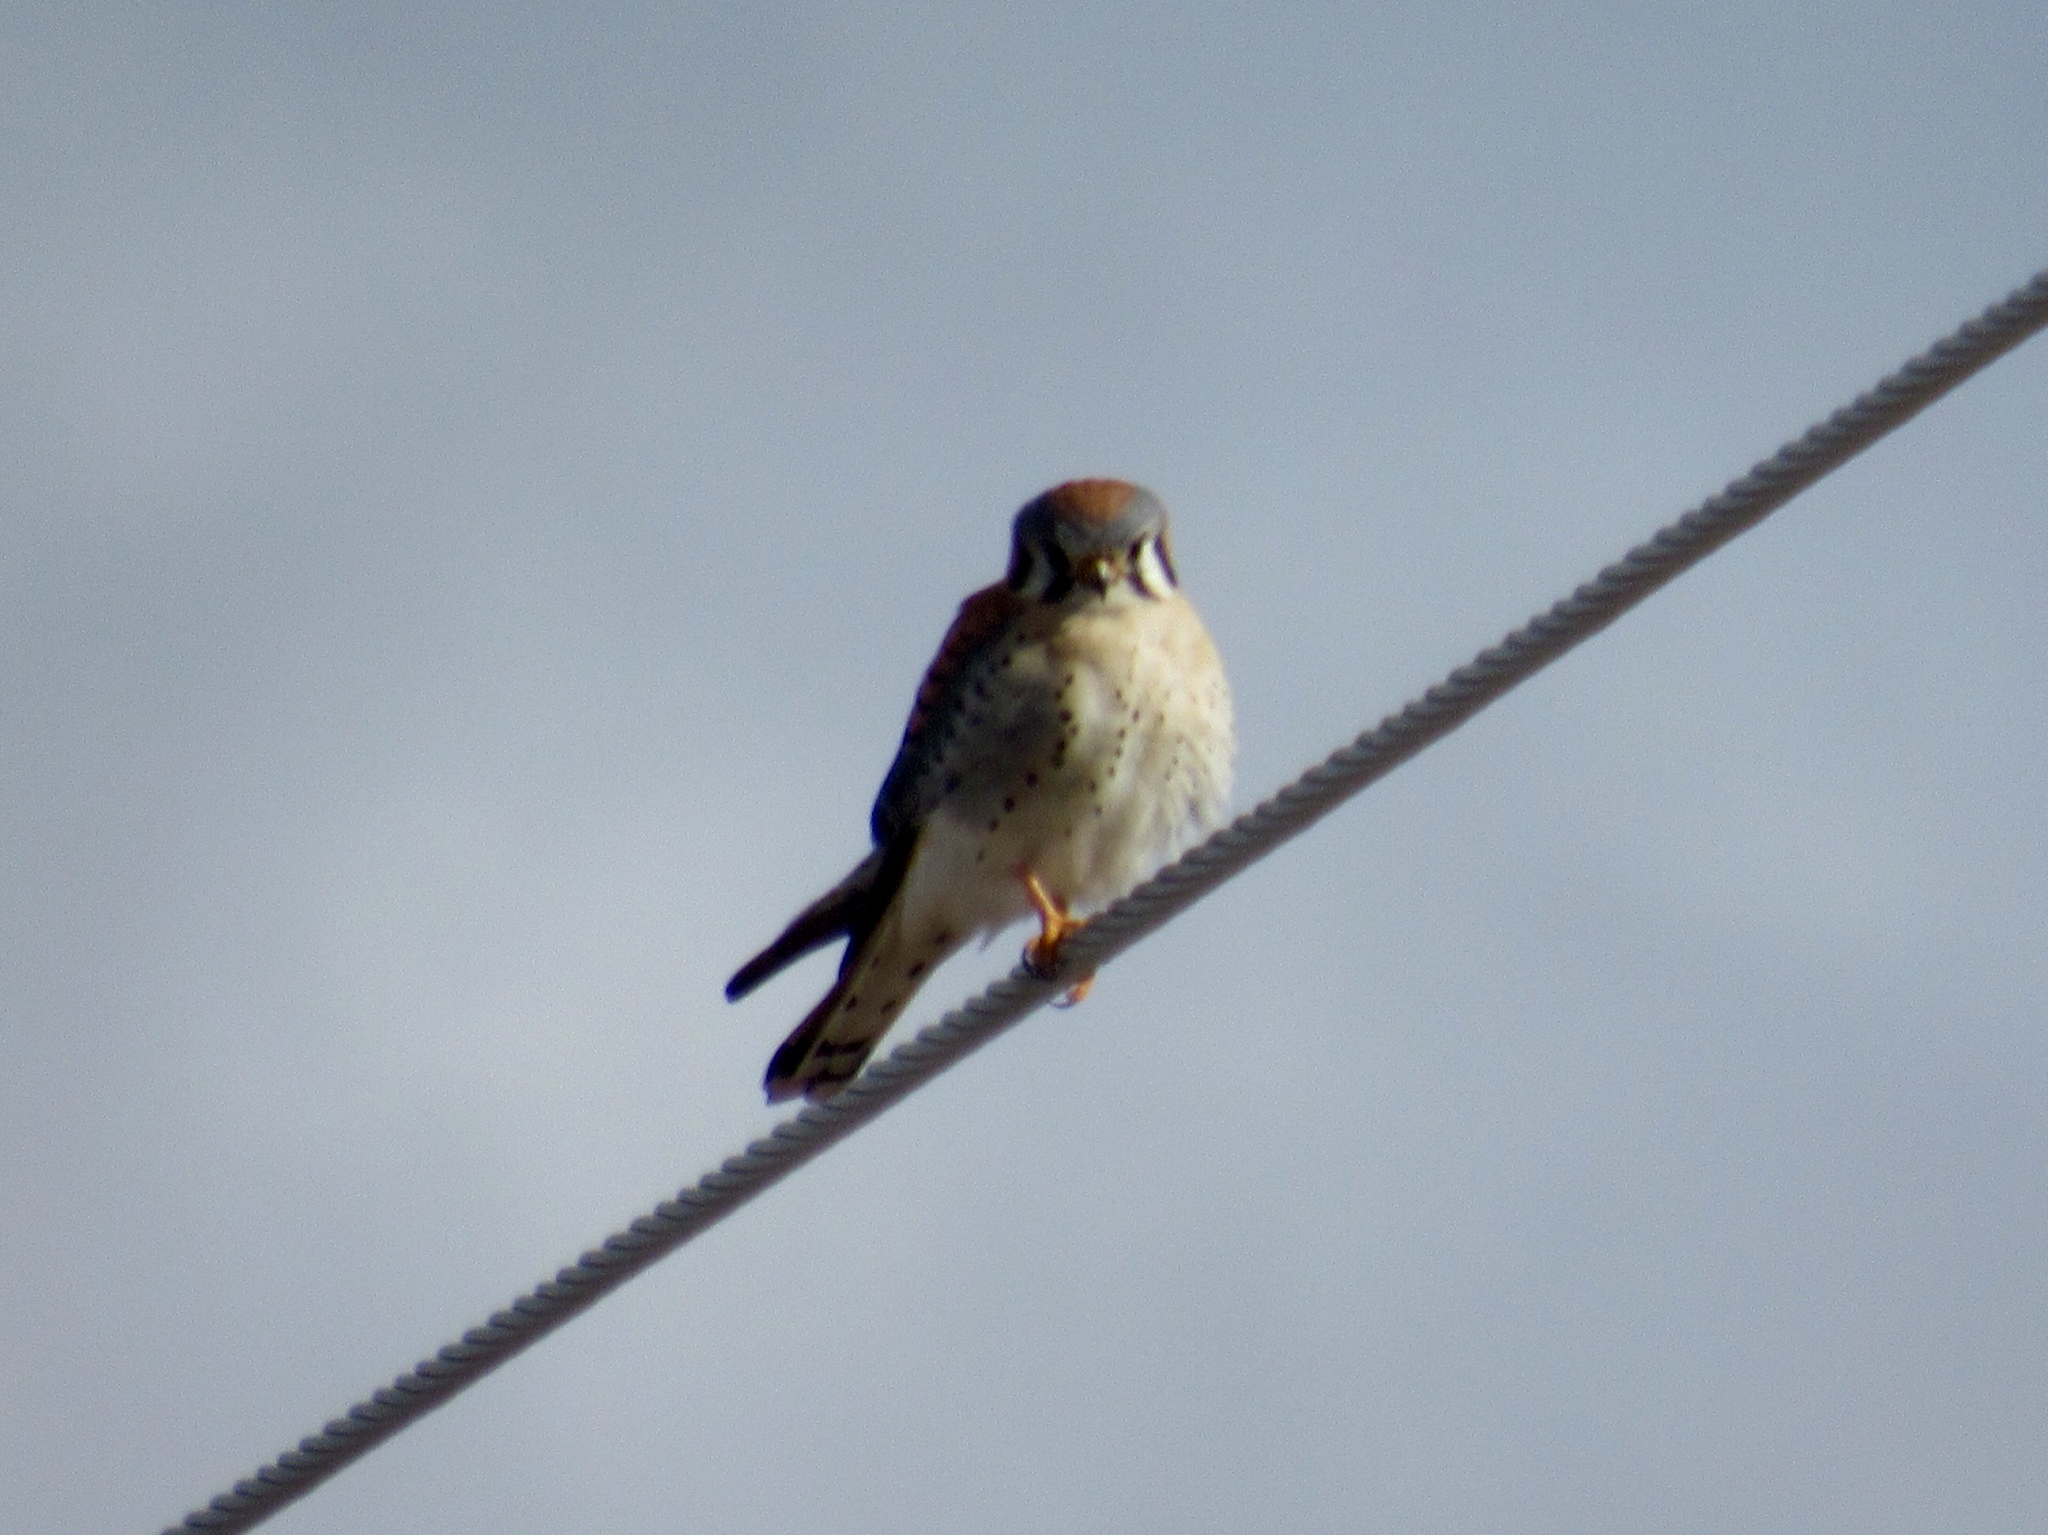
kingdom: Animalia
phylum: Chordata
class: Aves
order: Falconiformes
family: Falconidae
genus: Falco
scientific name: Falco sparverius
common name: American kestrel
